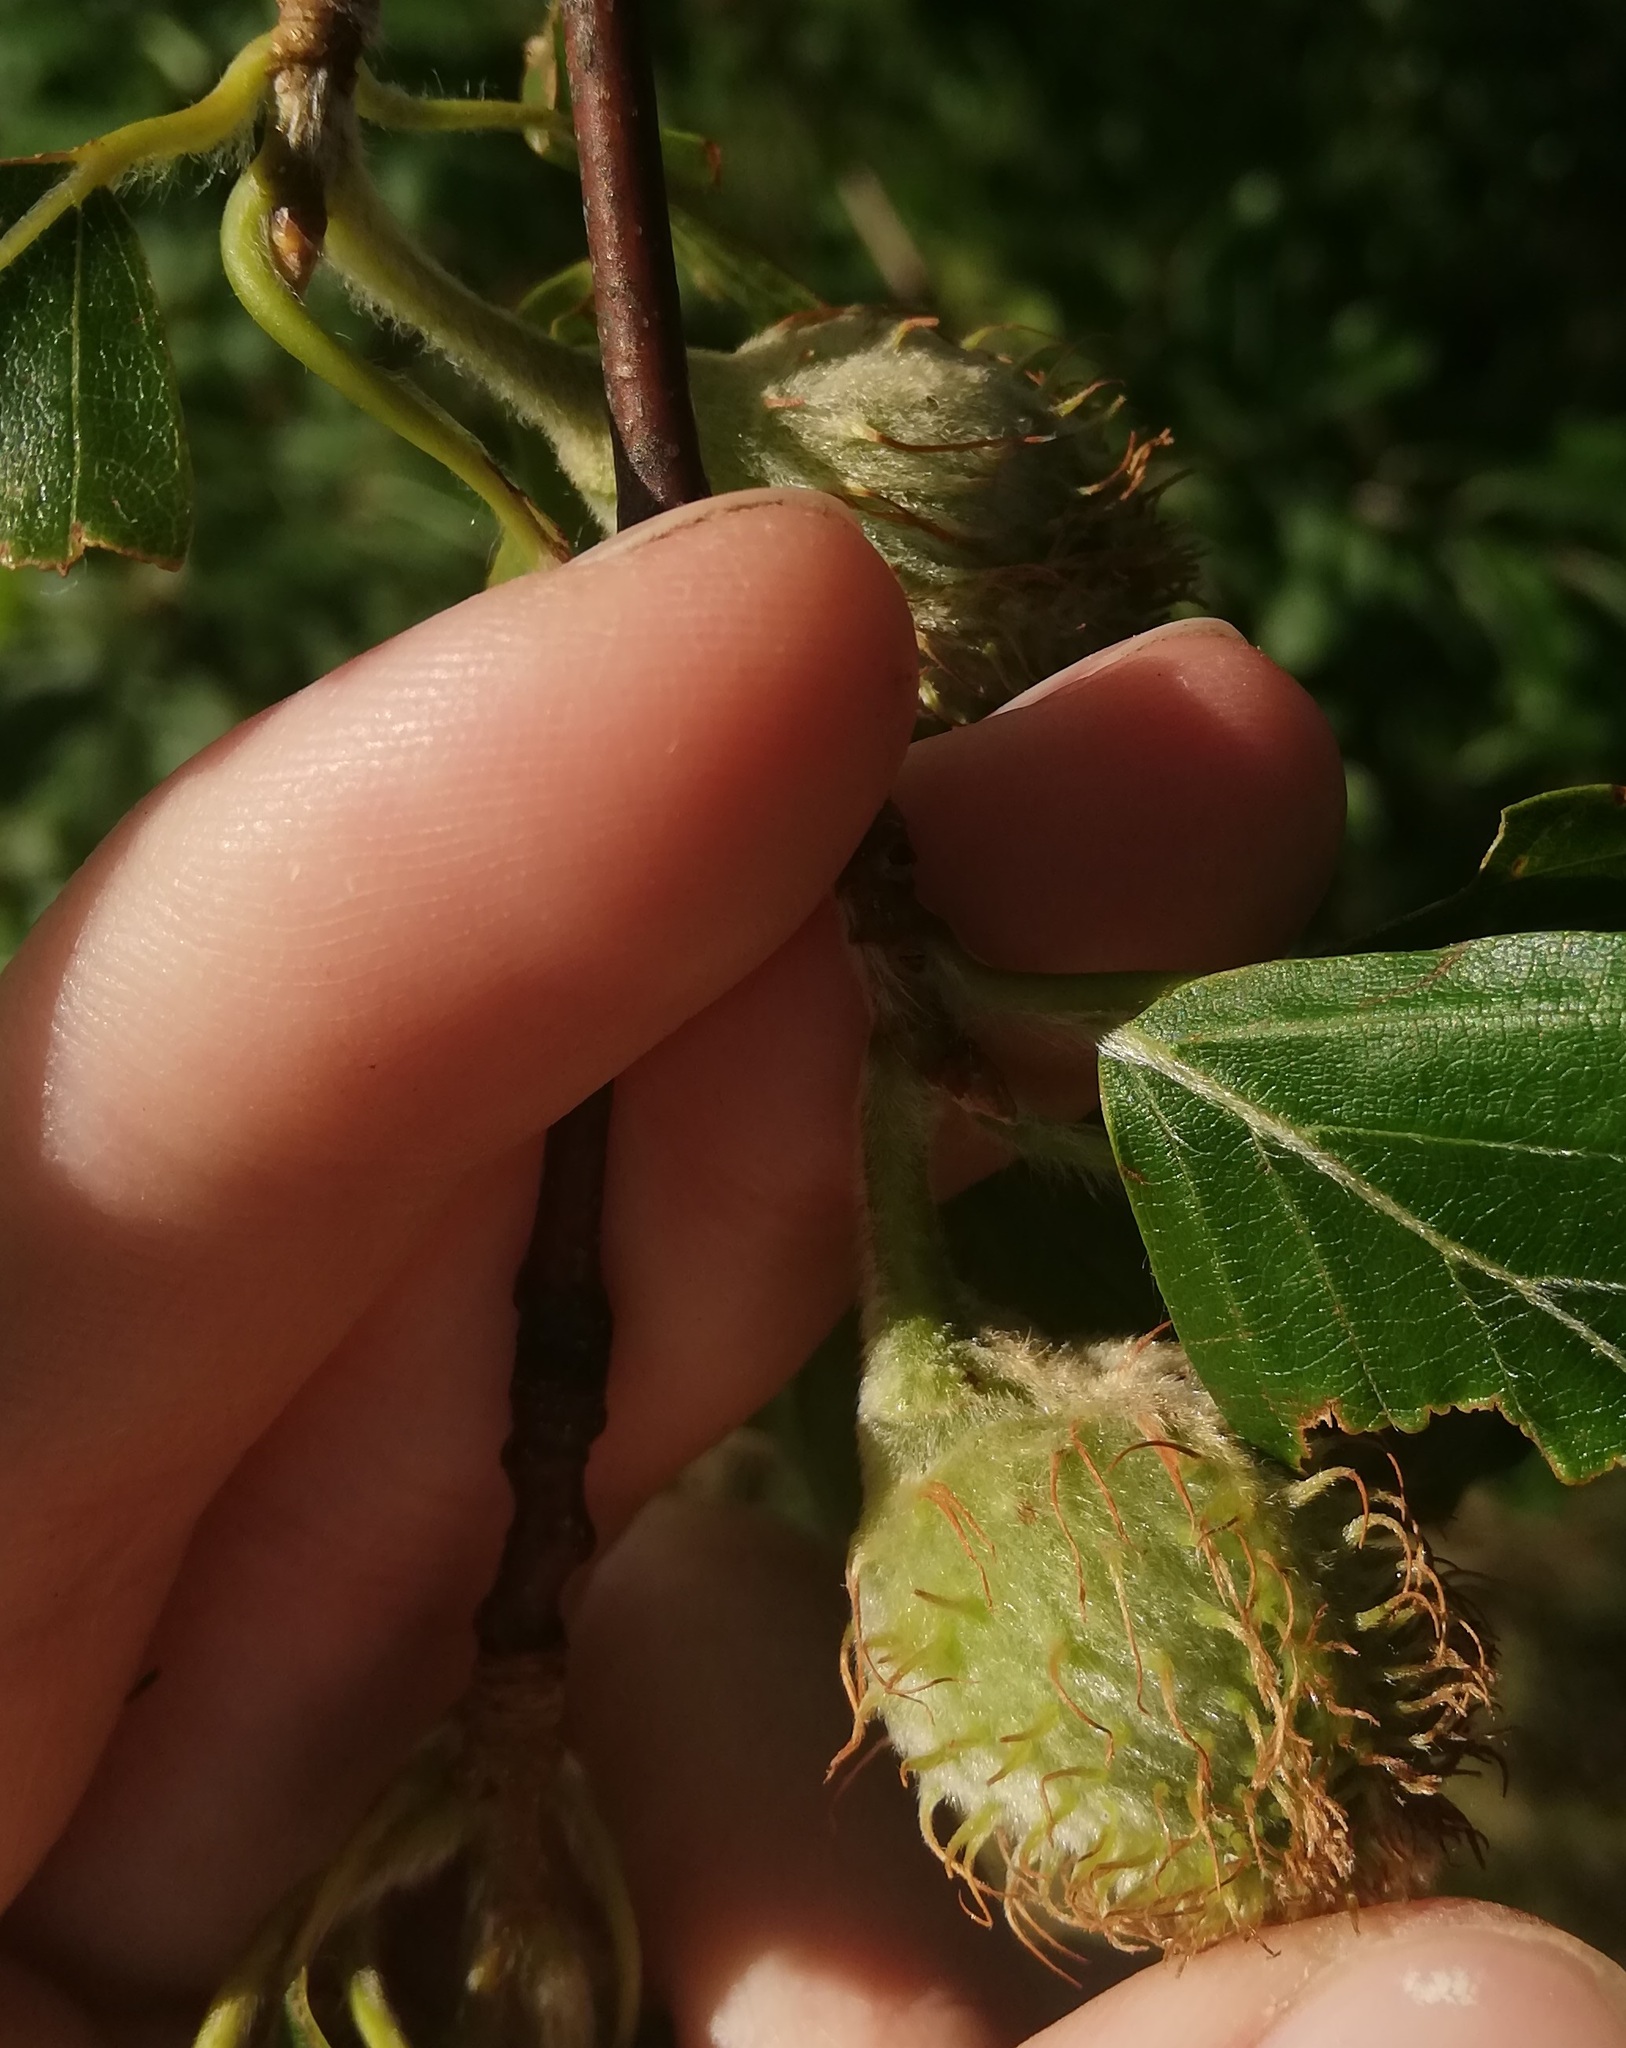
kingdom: Plantae
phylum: Tracheophyta
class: Magnoliopsida
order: Fagales
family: Fagaceae
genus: Fagus
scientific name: Fagus sylvatica
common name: Beech
